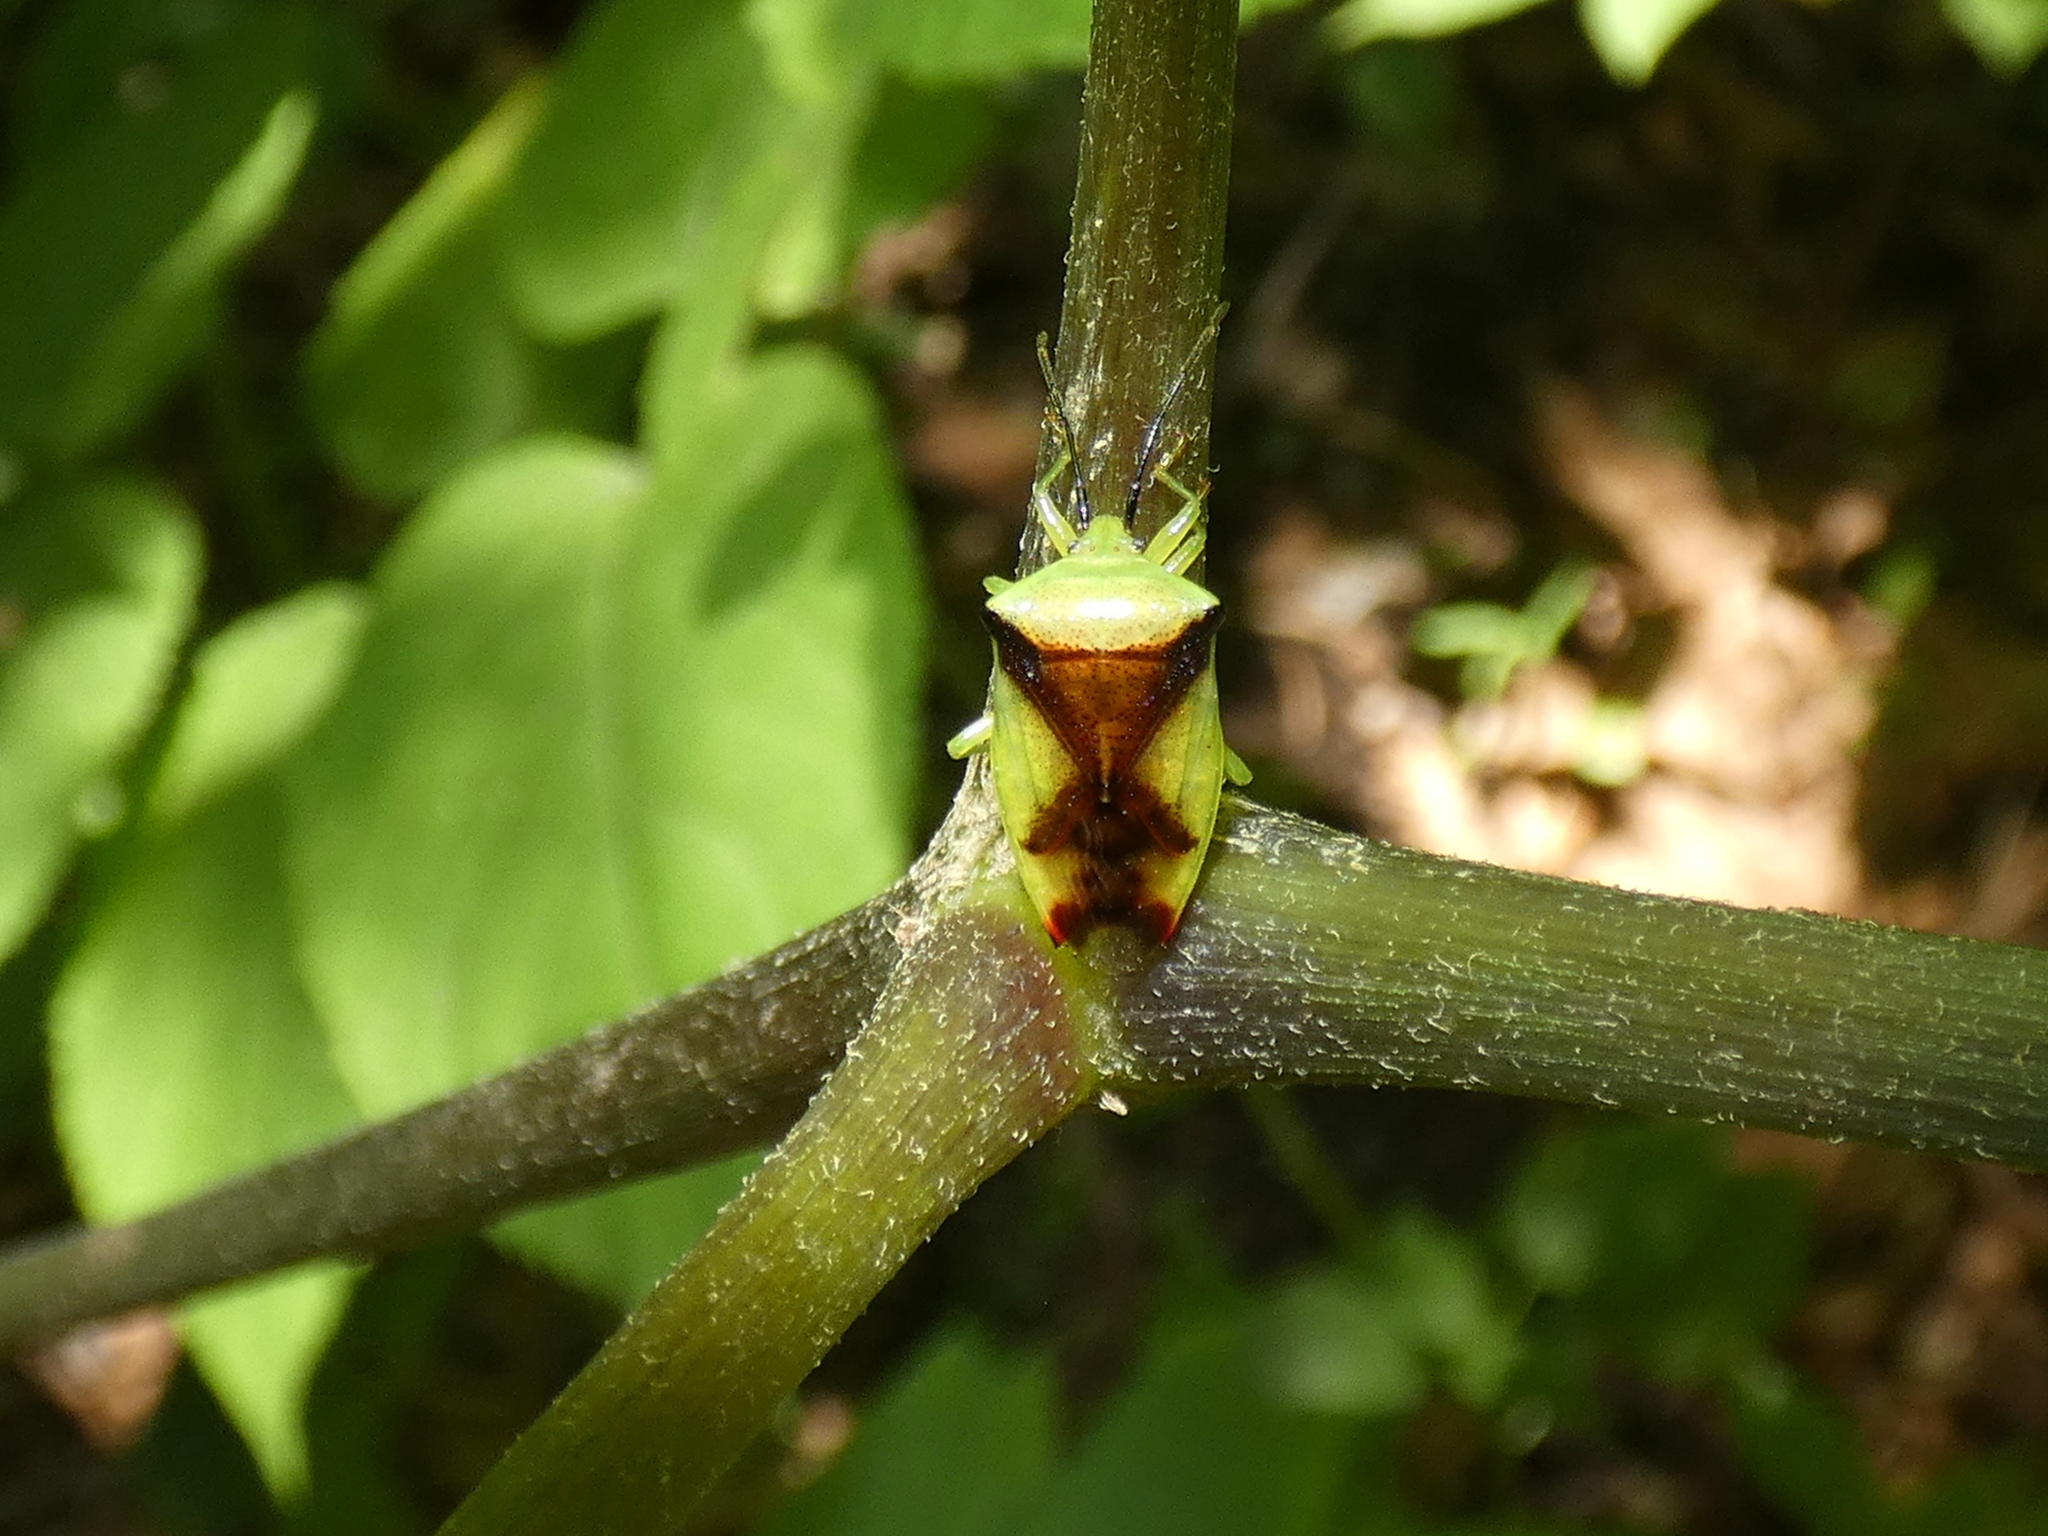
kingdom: Animalia
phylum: Arthropoda
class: Insecta
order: Hemiptera
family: Acanthosomatidae
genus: Elasmostethus
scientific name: Elasmostethus atricornis
